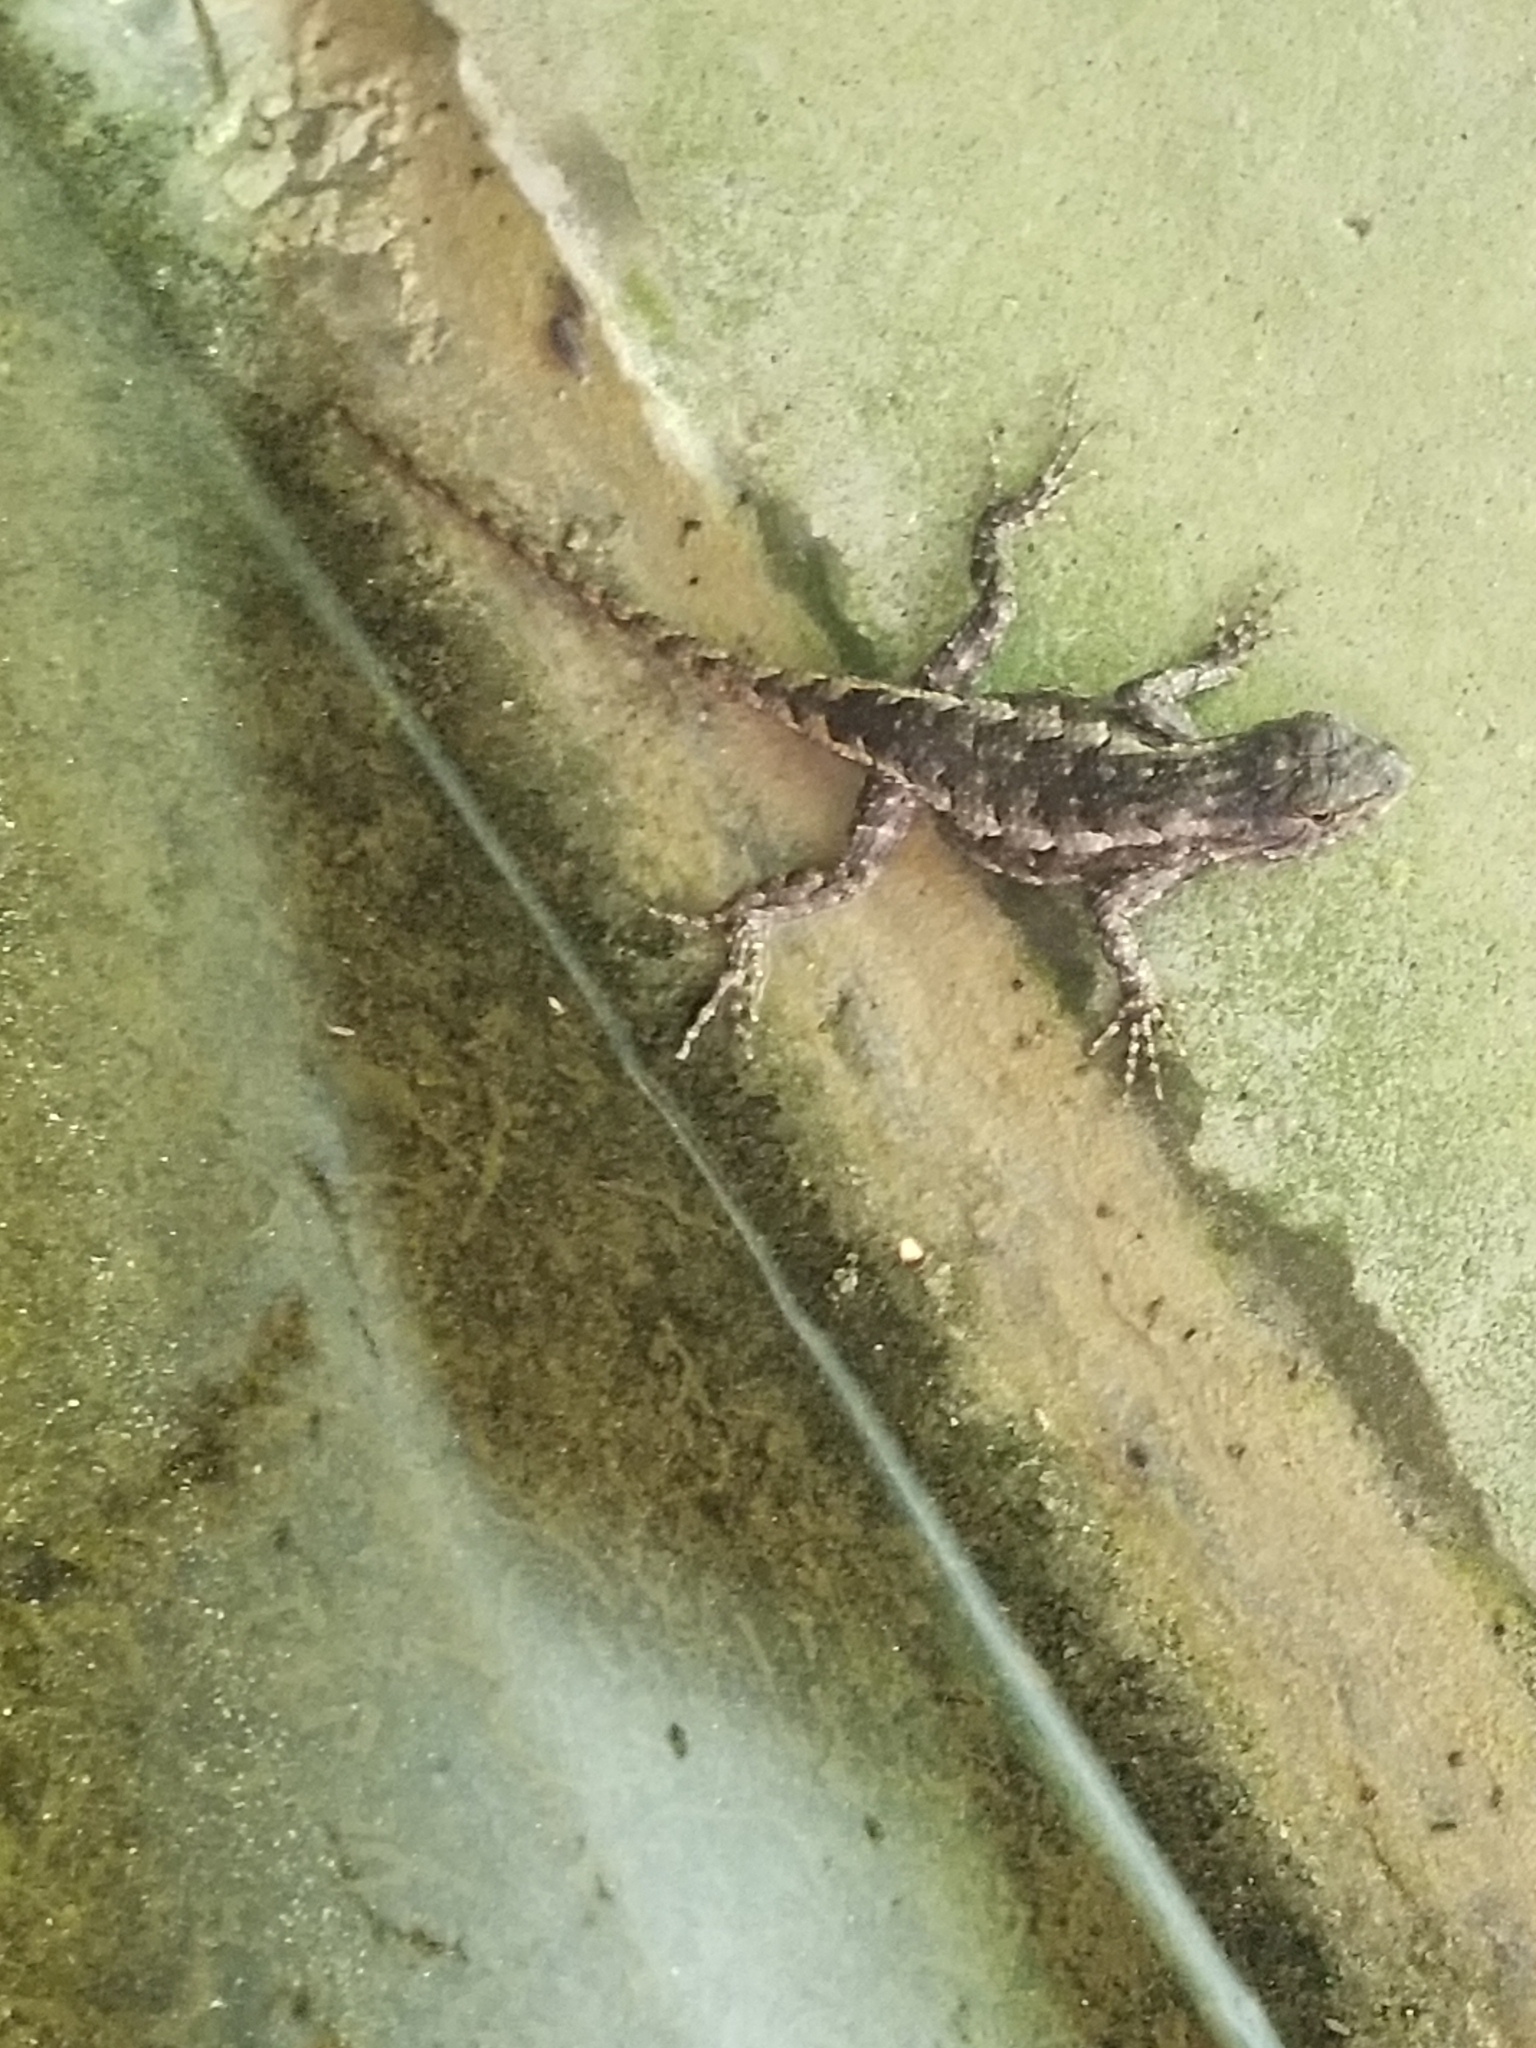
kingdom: Animalia
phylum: Chordata
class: Squamata
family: Phrynosomatidae
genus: Sceloporus
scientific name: Sceloporus undulatus
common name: Eastern fence lizard
